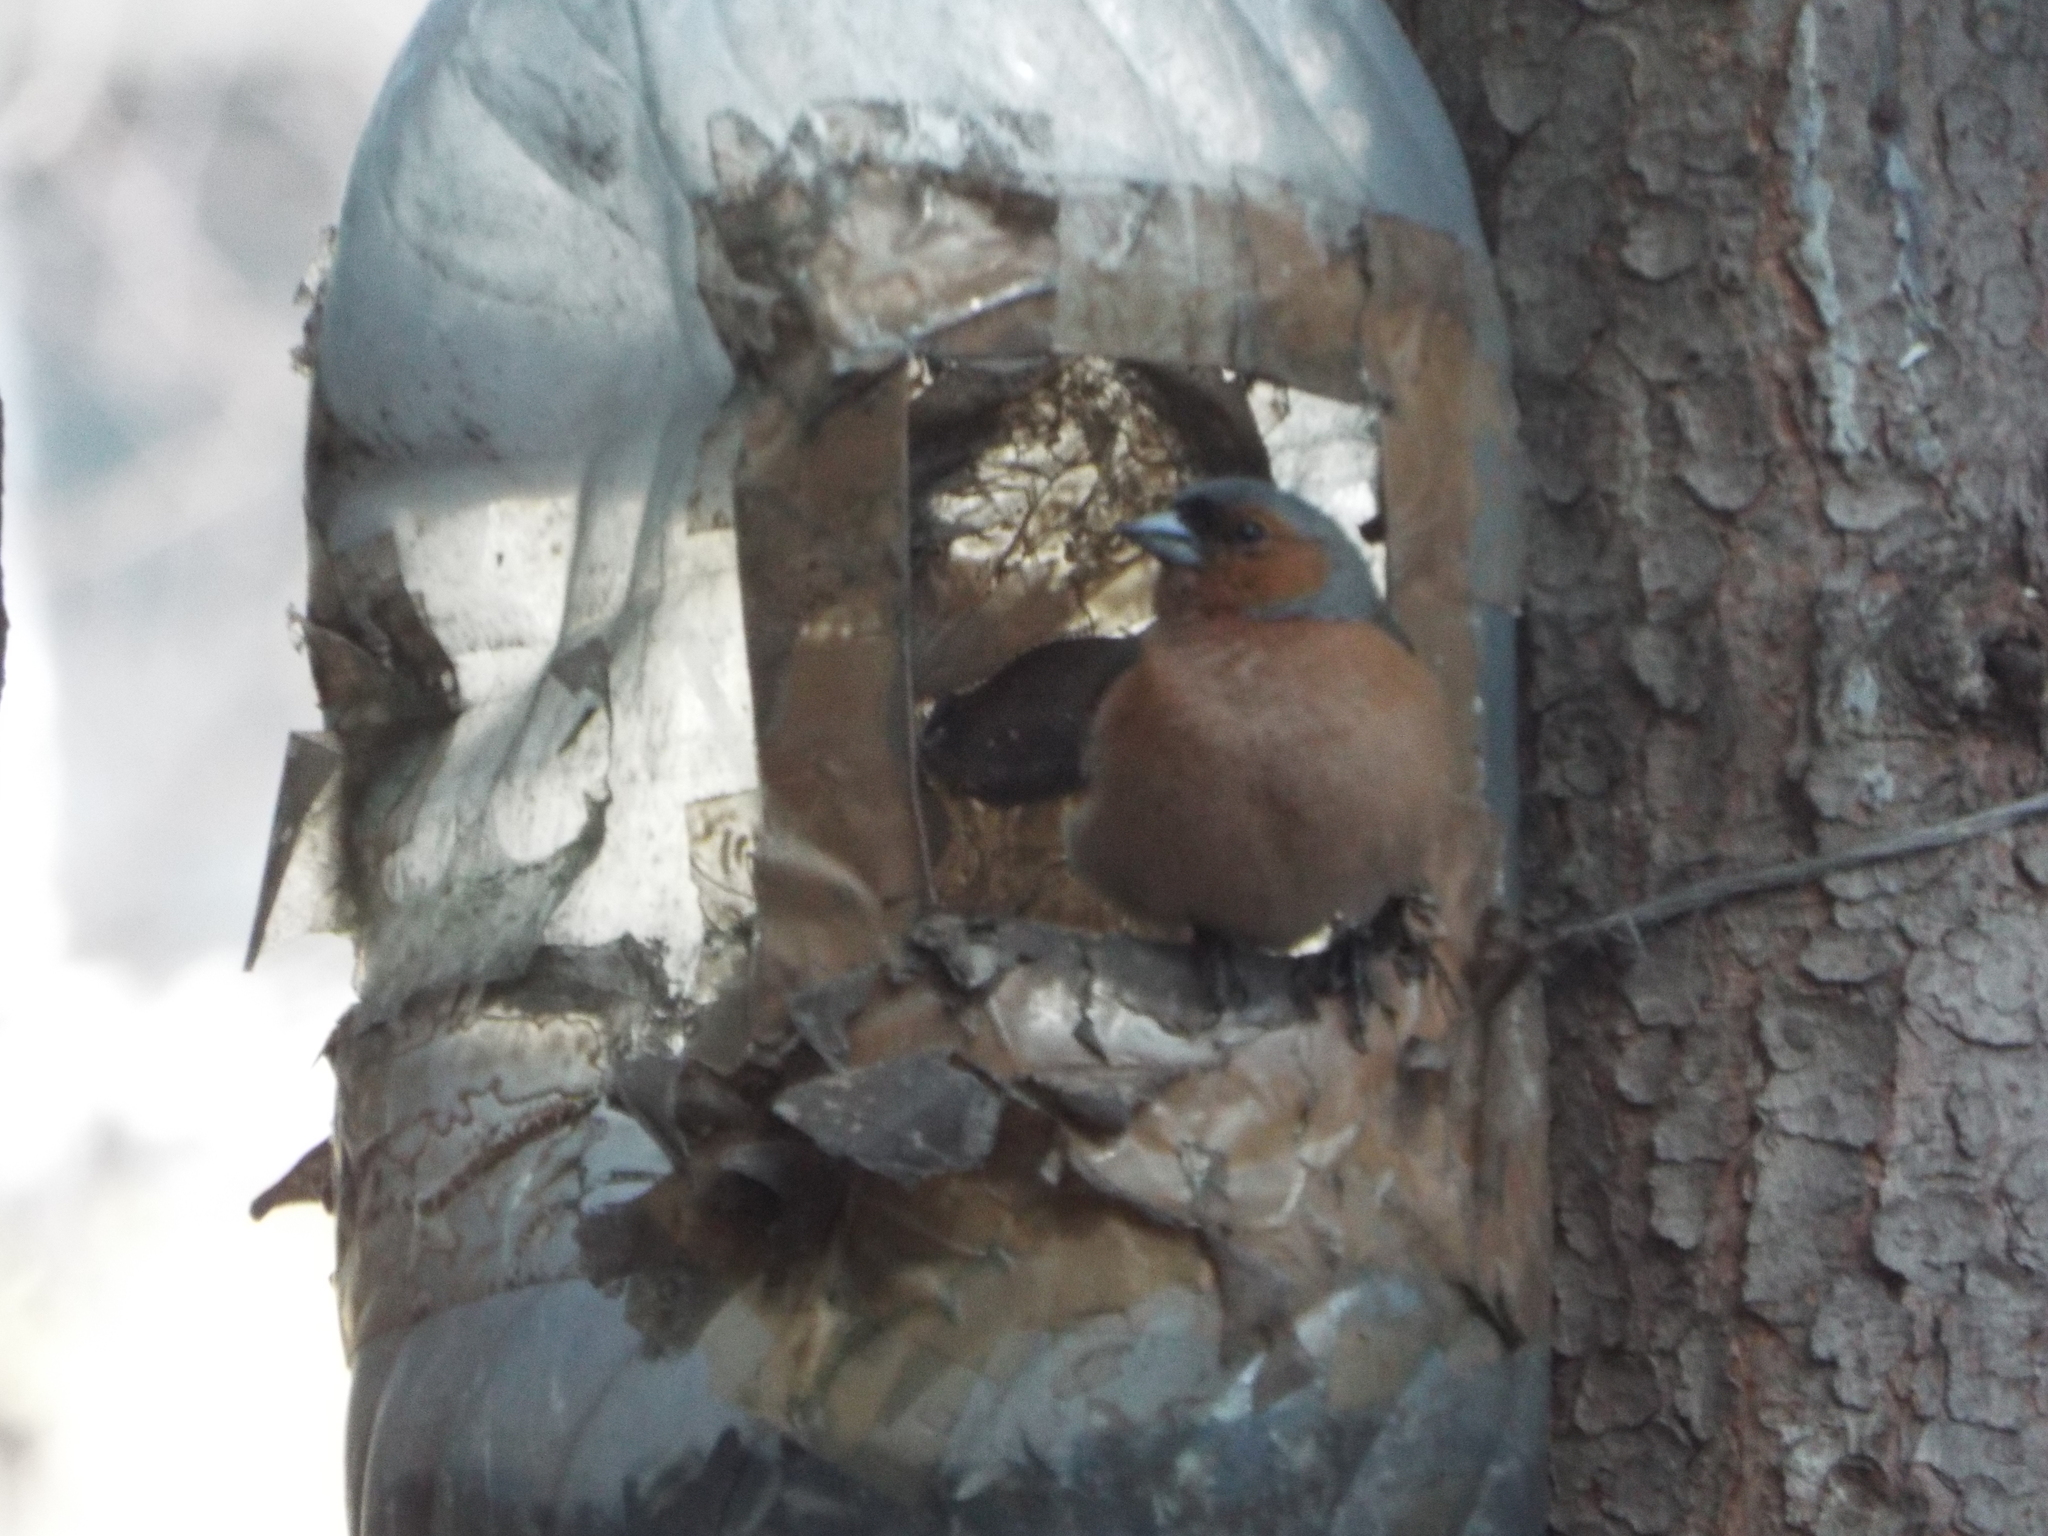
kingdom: Animalia
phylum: Chordata
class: Aves
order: Passeriformes
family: Fringillidae
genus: Fringilla
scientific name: Fringilla coelebs
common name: Common chaffinch
